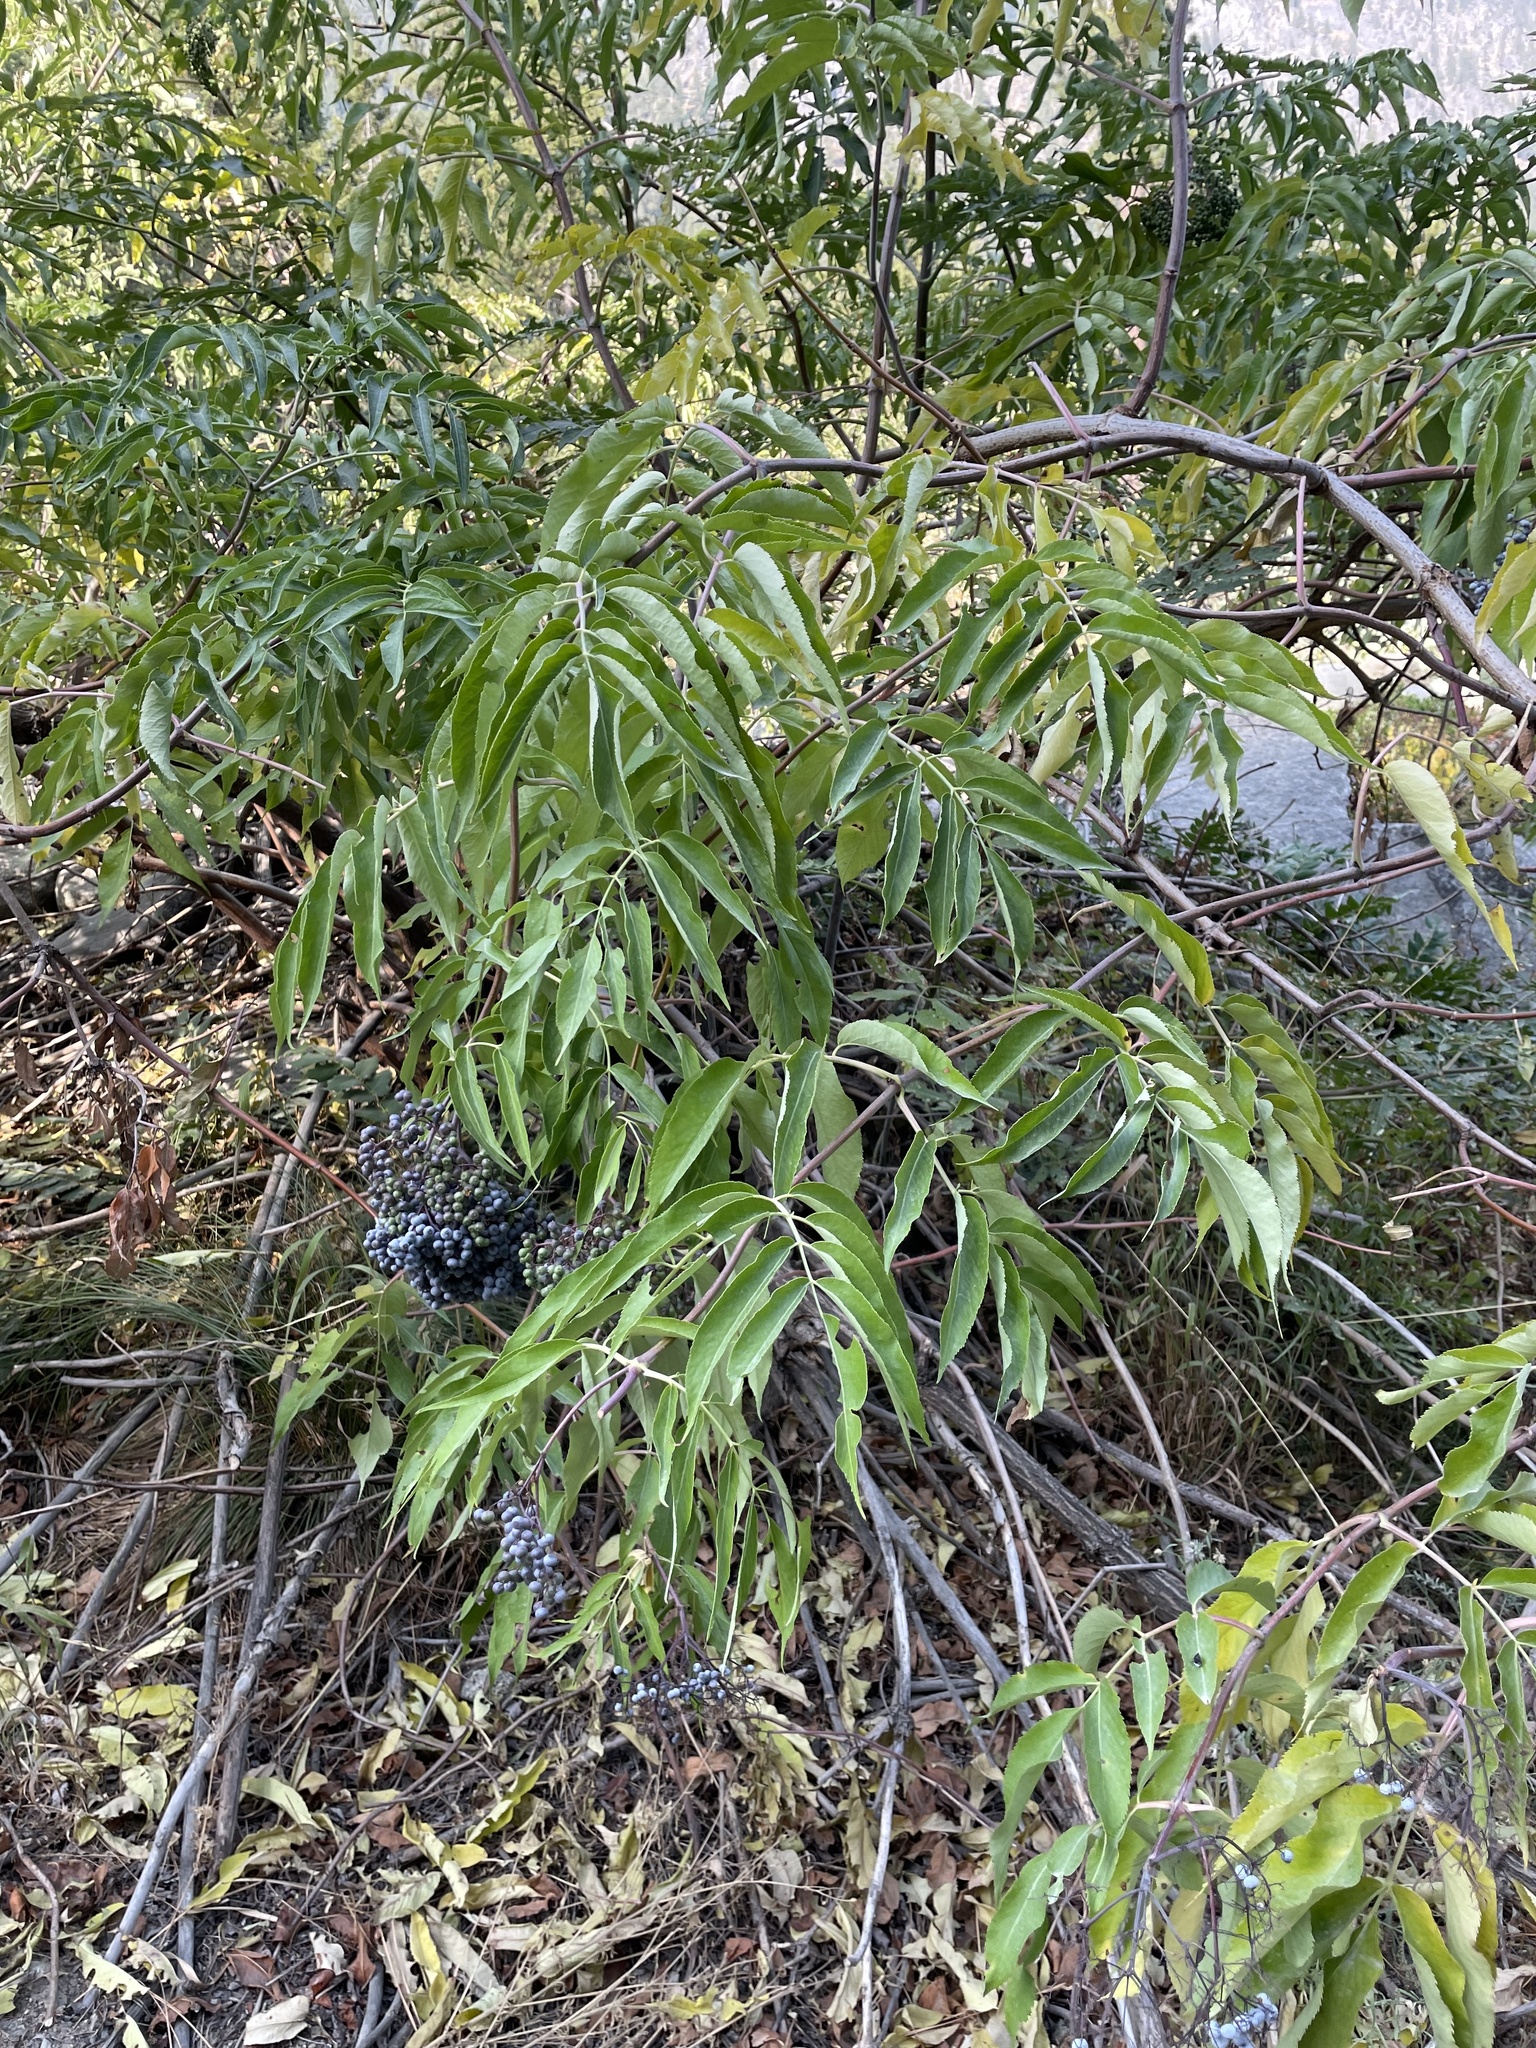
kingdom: Plantae
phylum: Tracheophyta
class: Magnoliopsida
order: Dipsacales
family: Viburnaceae
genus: Sambucus
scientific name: Sambucus cerulea
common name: Blue elder
